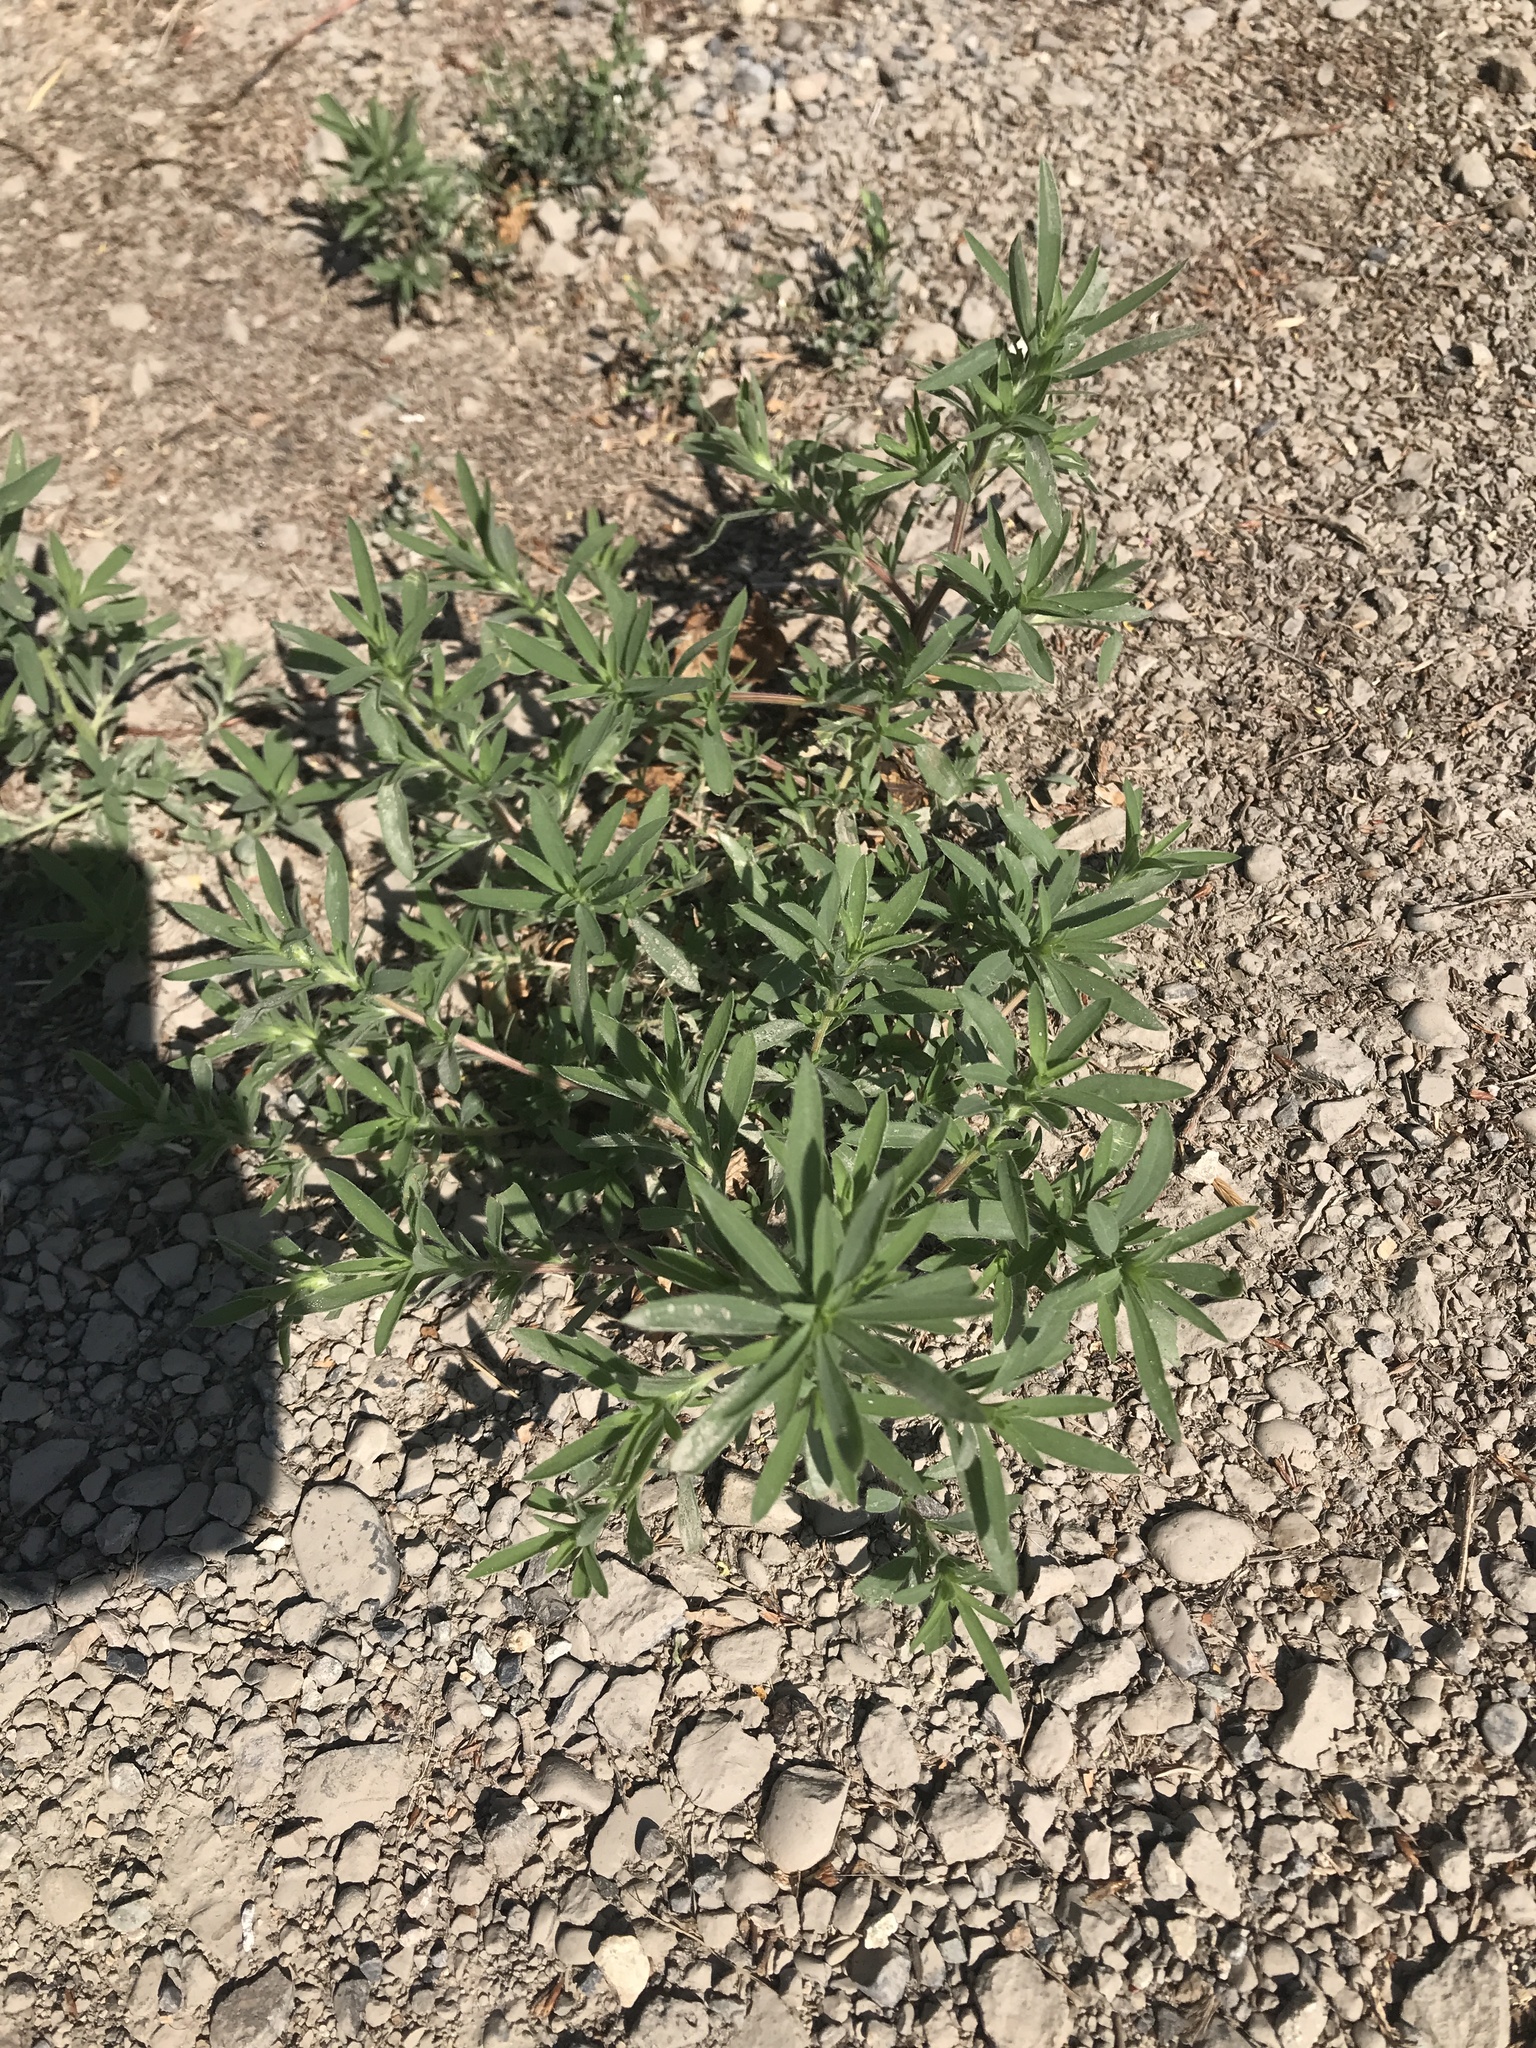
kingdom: Plantae
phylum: Tracheophyta
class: Magnoliopsida
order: Caryophyllales
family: Amaranthaceae
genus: Bassia
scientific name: Bassia scoparia
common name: Belvedere
